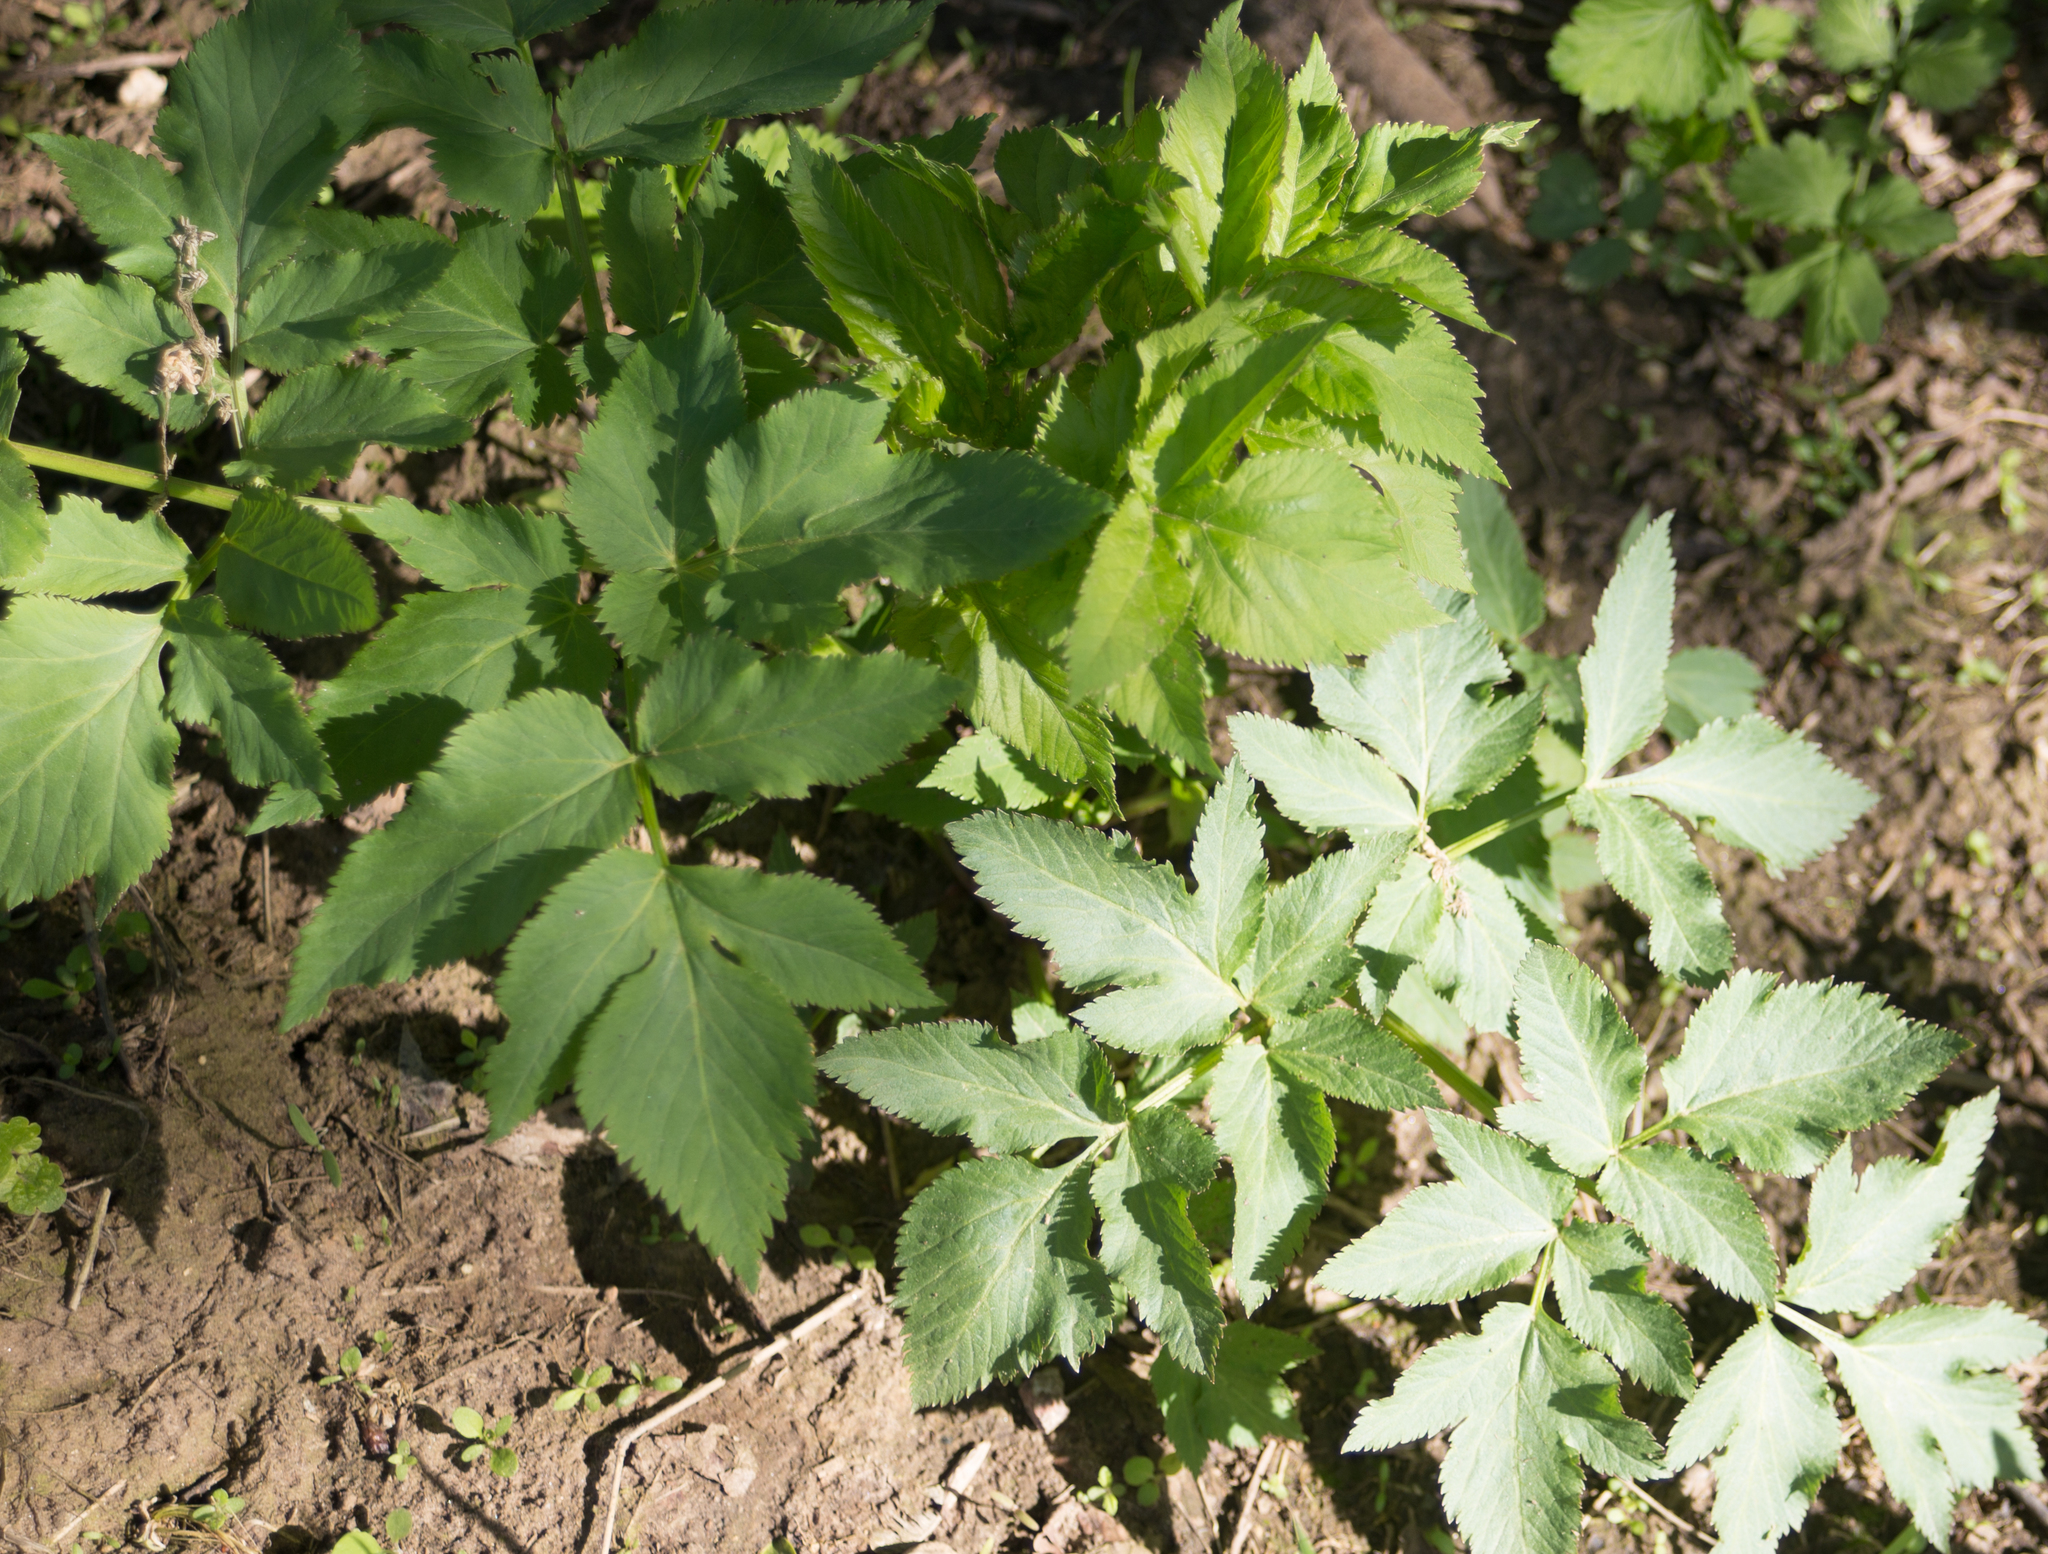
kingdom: Plantae
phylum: Tracheophyta
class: Magnoliopsida
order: Apiales
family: Apiaceae
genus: Angelica
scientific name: Angelica archangelica
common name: Garden angelica
